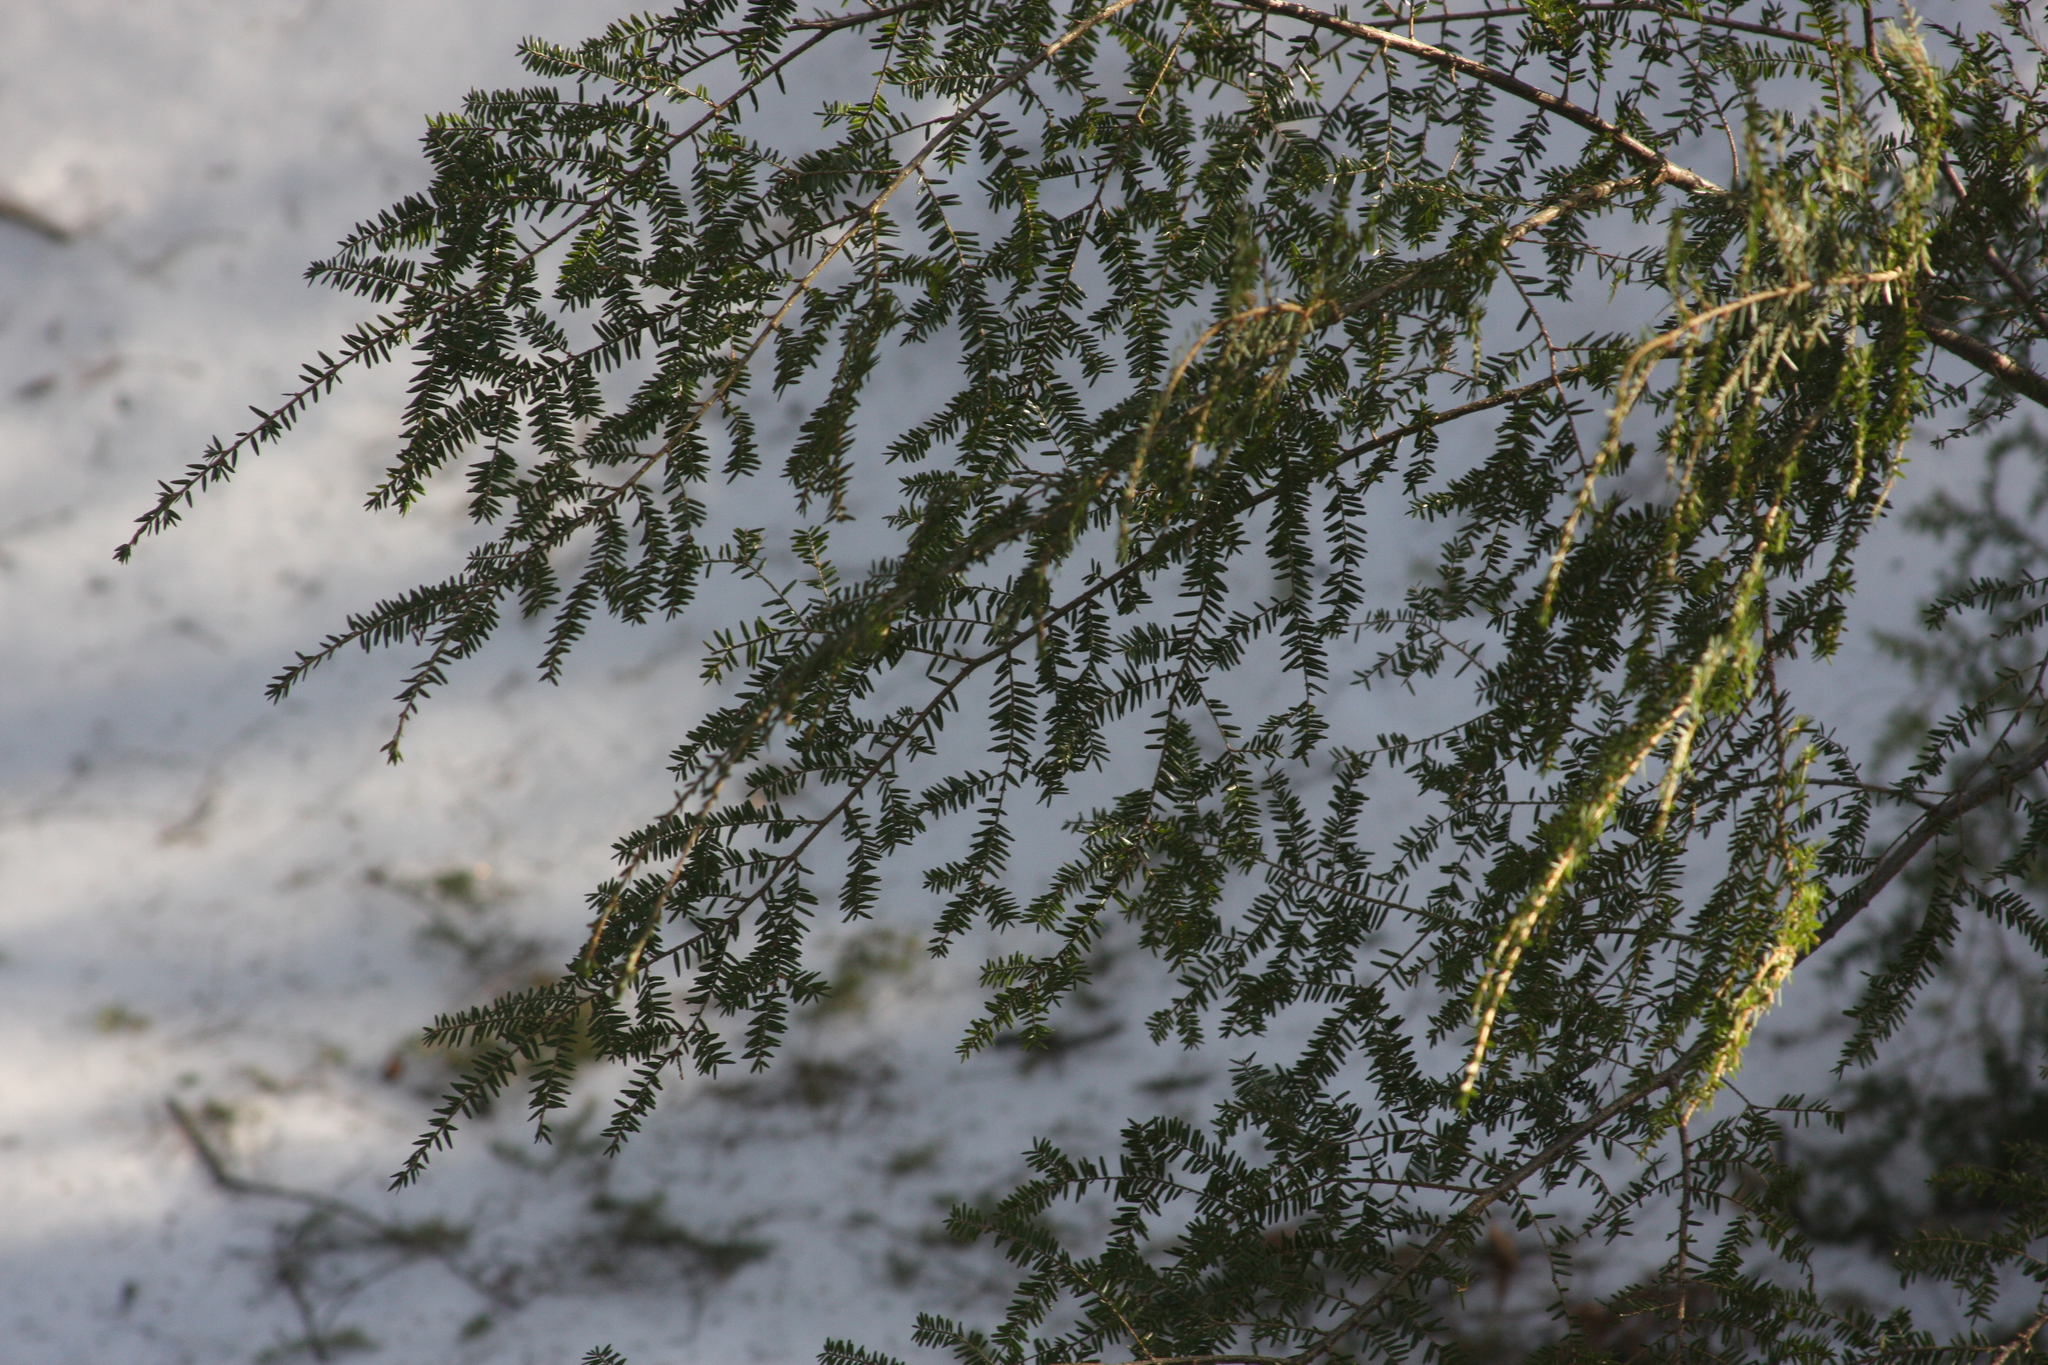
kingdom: Plantae
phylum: Tracheophyta
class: Pinopsida
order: Pinales
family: Pinaceae
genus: Tsuga
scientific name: Tsuga canadensis
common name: Eastern hemlock
